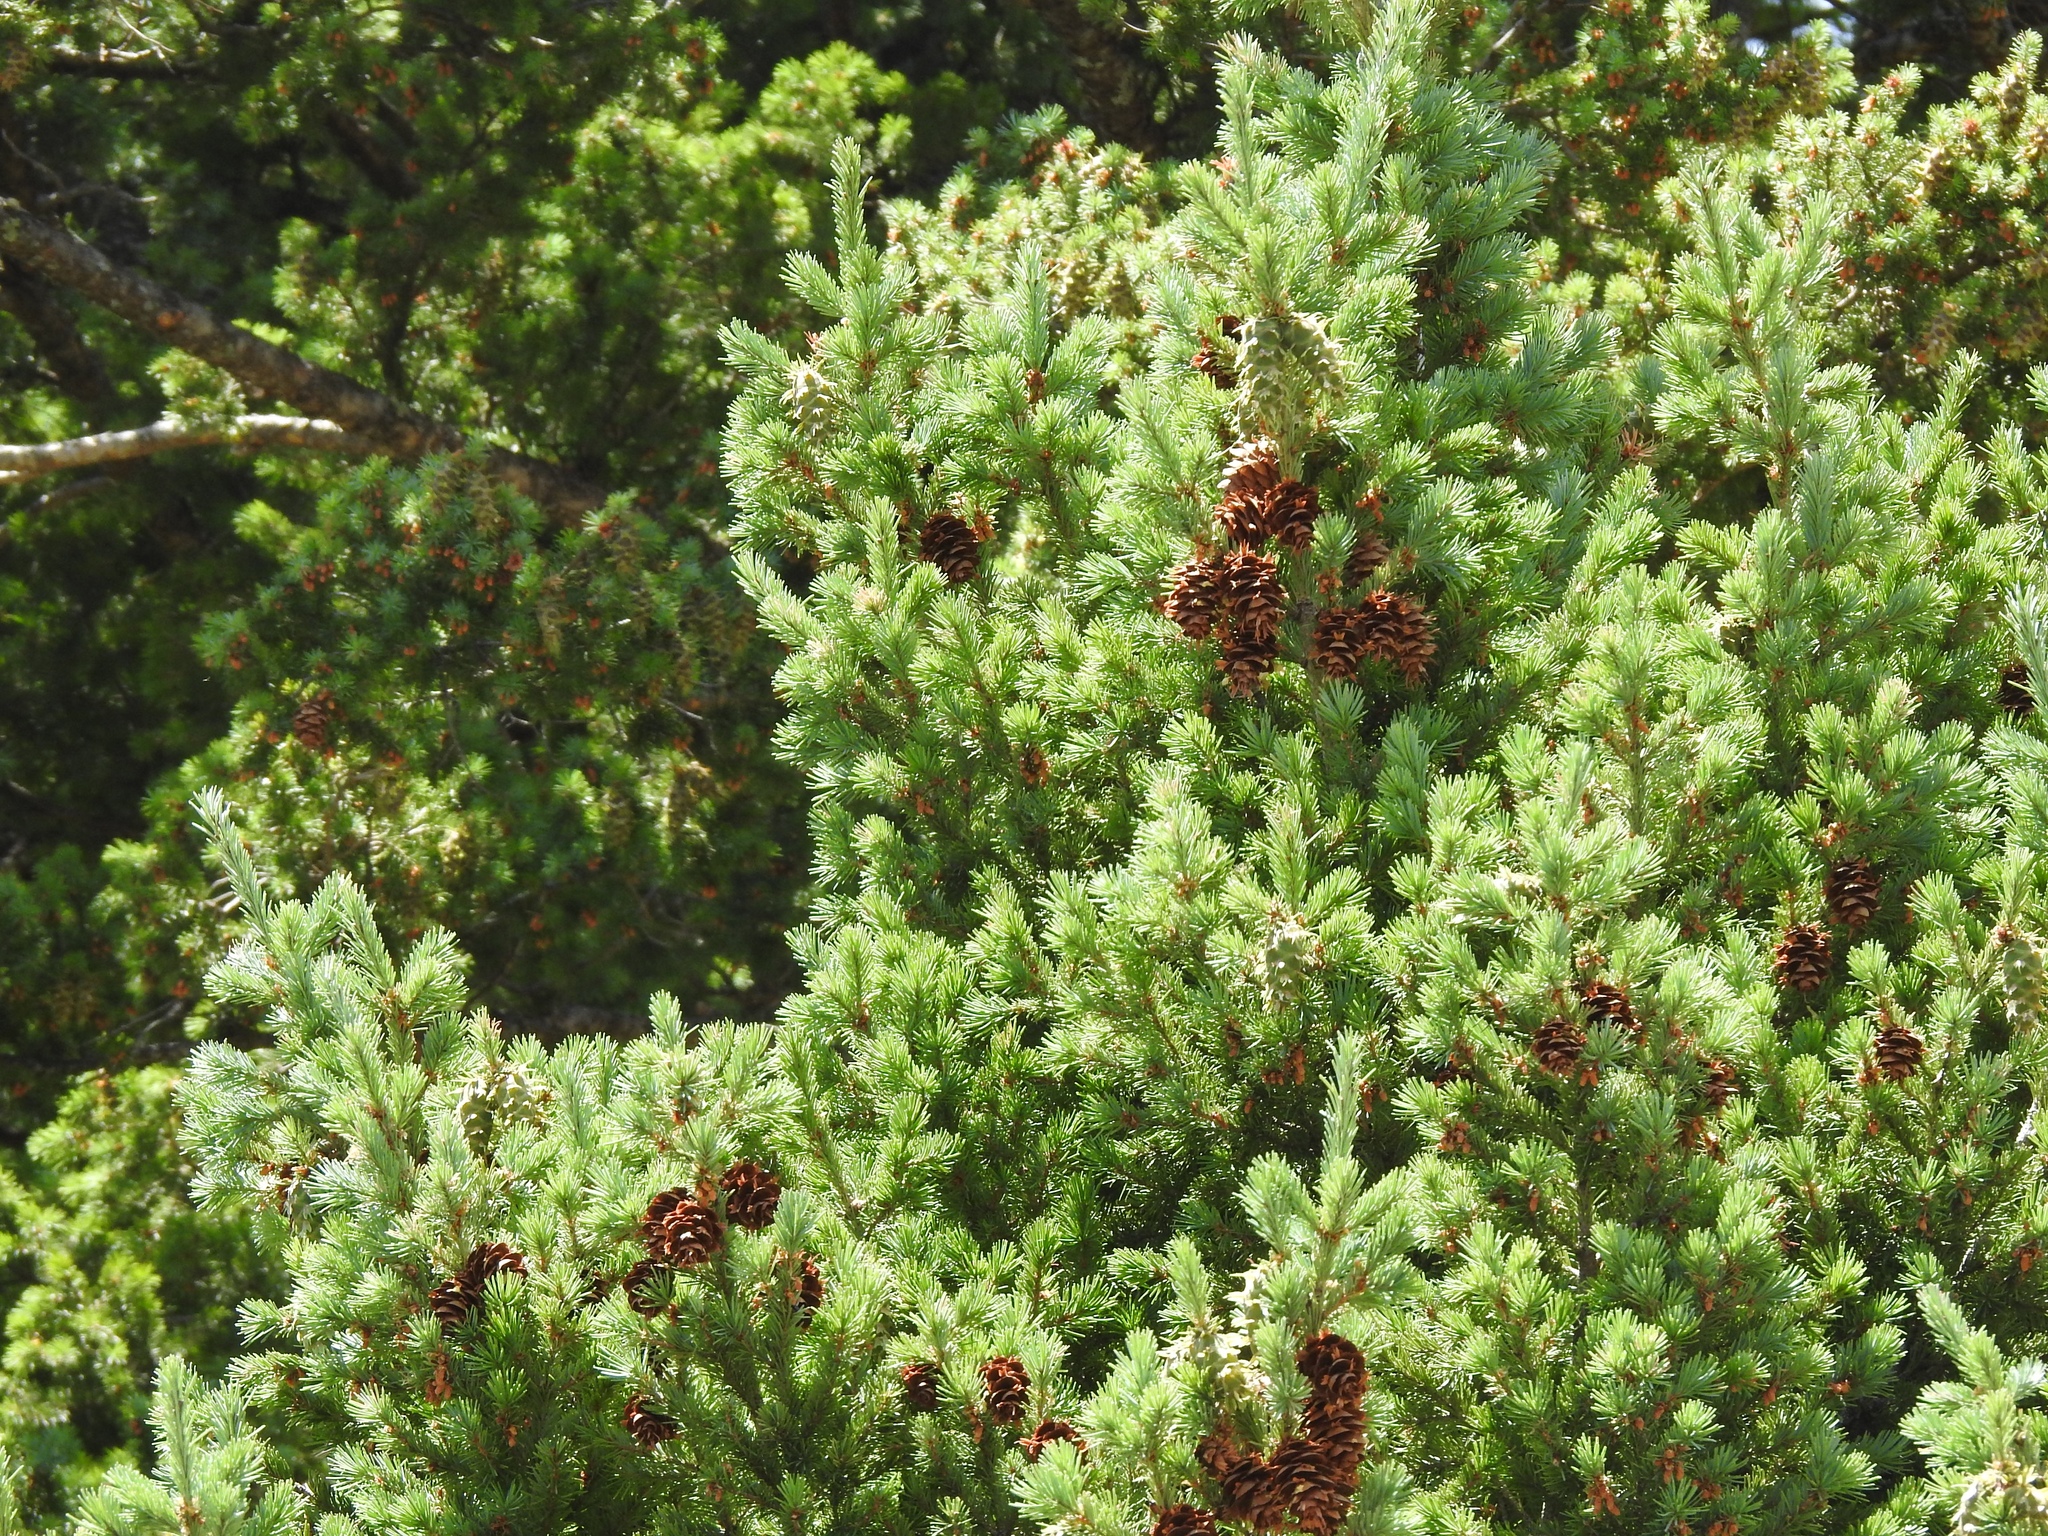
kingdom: Plantae
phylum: Tracheophyta
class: Pinopsida
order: Pinales
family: Pinaceae
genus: Pseudotsuga
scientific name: Pseudotsuga menziesii
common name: Douglas fir
